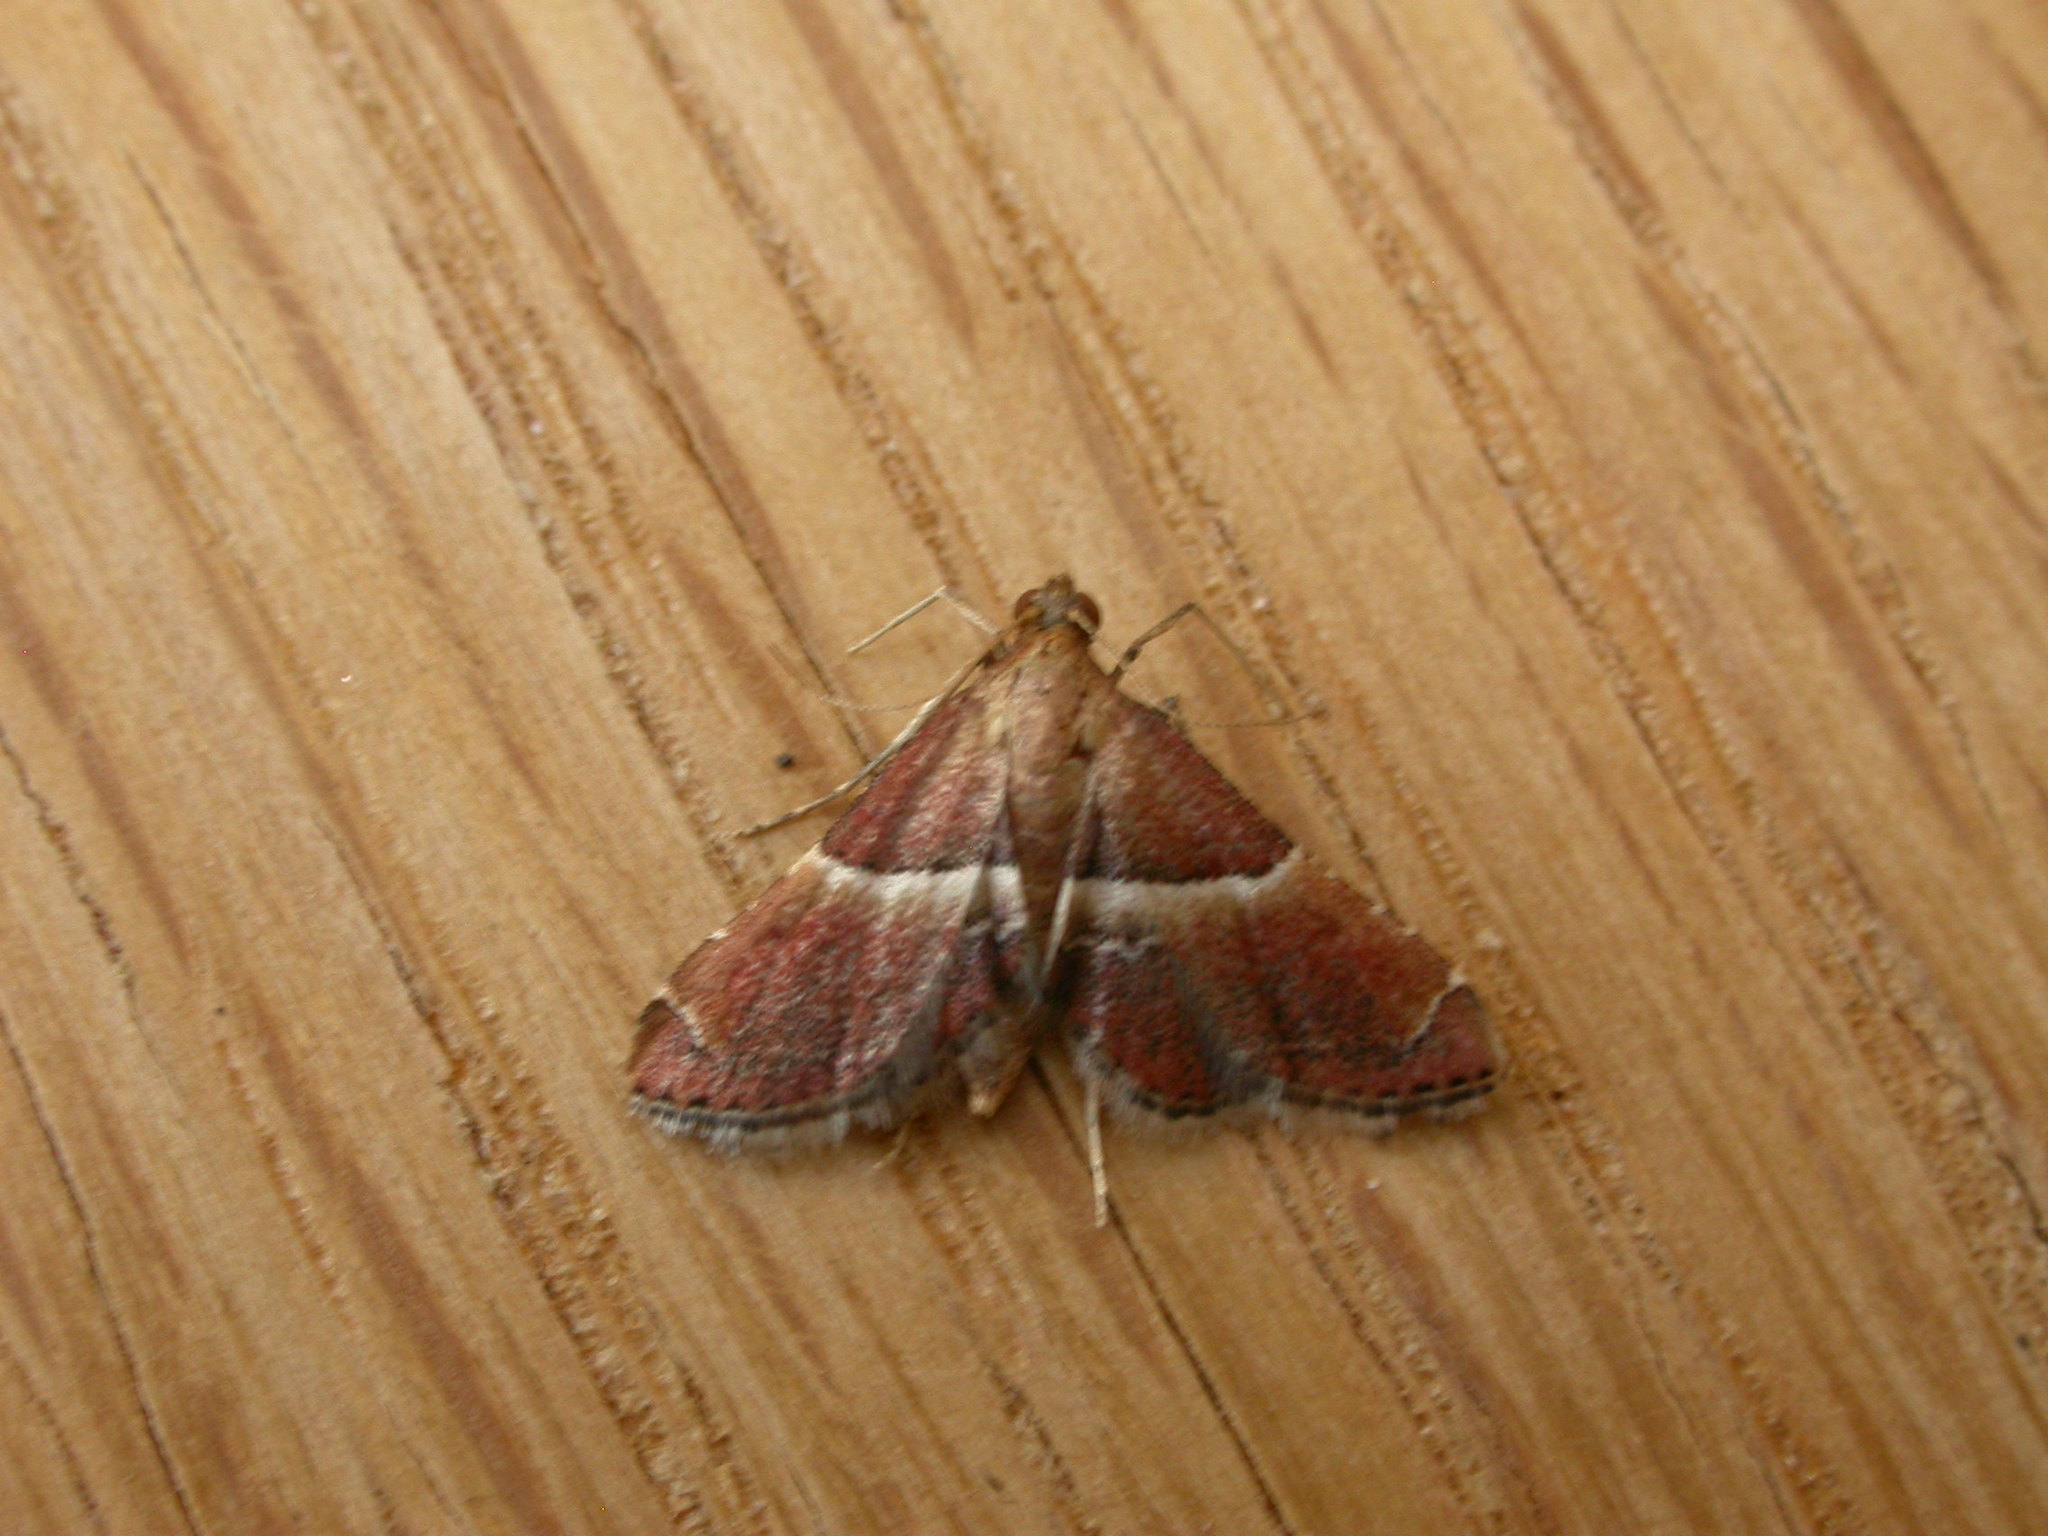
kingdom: Animalia
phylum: Arthropoda
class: Insecta
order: Lepidoptera
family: Pyralidae
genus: Persicoptera
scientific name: Persicoptera compsopa
